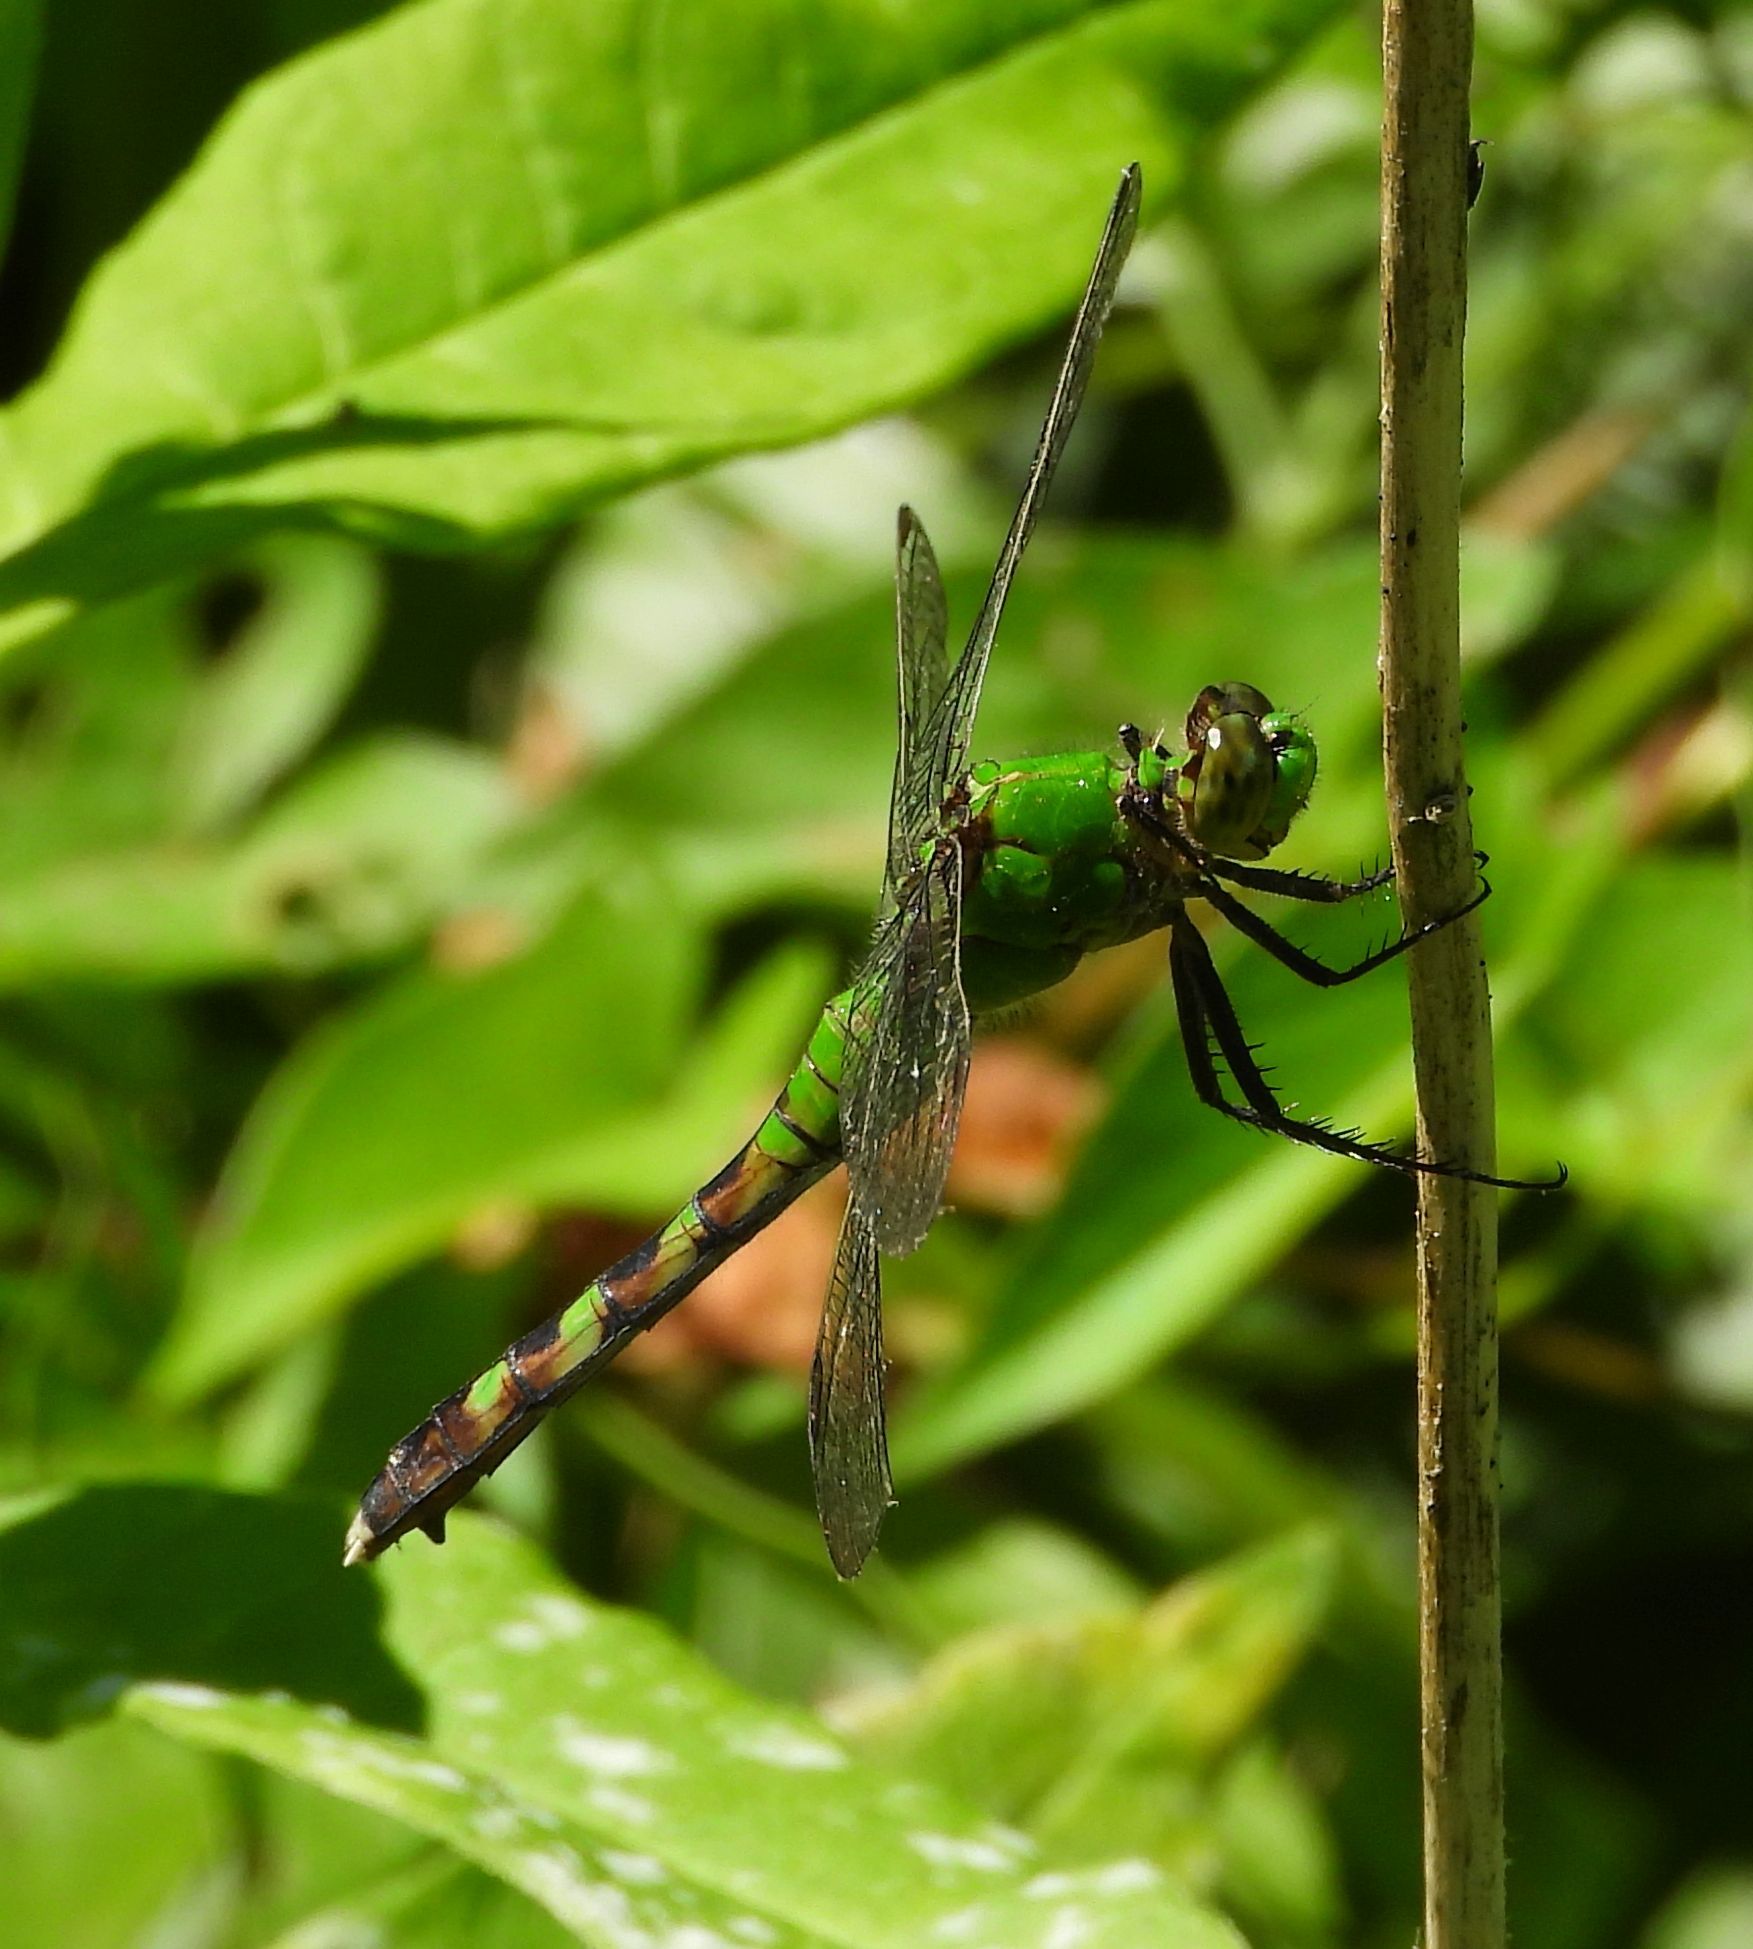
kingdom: Animalia
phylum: Arthropoda
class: Insecta
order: Odonata
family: Libellulidae
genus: Erythemis
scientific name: Erythemis simplicicollis
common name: Eastern pondhawk
